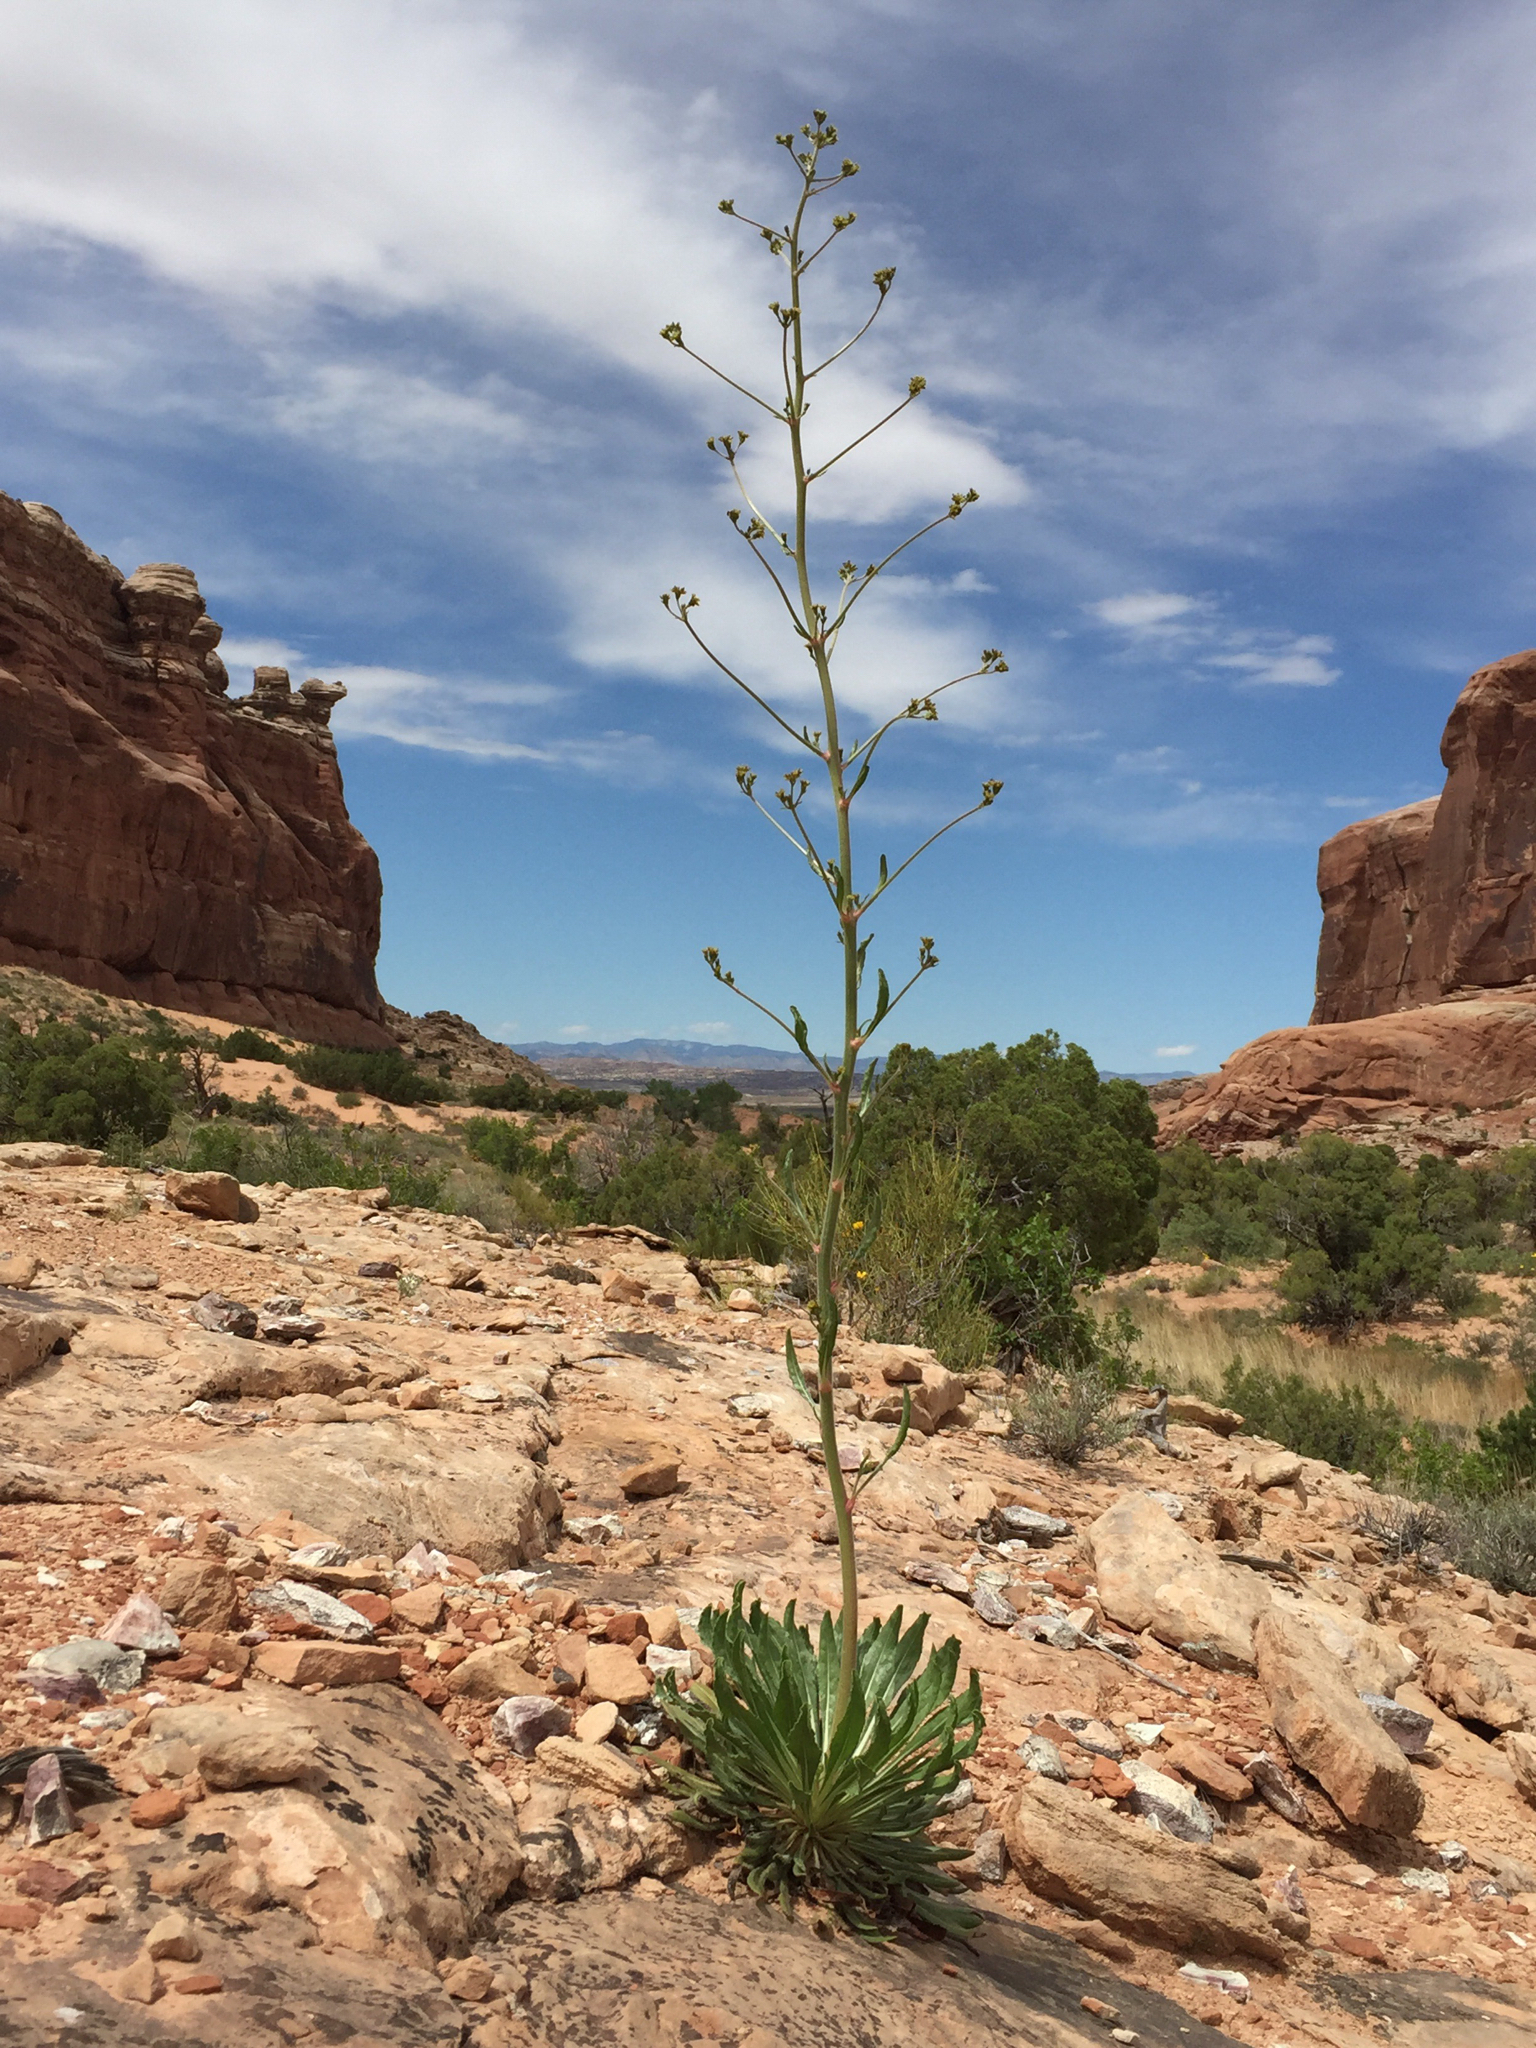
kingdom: Plantae
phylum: Tracheophyta
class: Magnoliopsida
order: Caryophyllales
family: Polygonaceae
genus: Eriogonum
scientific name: Eriogonum alatum
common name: Winged eriogonum
